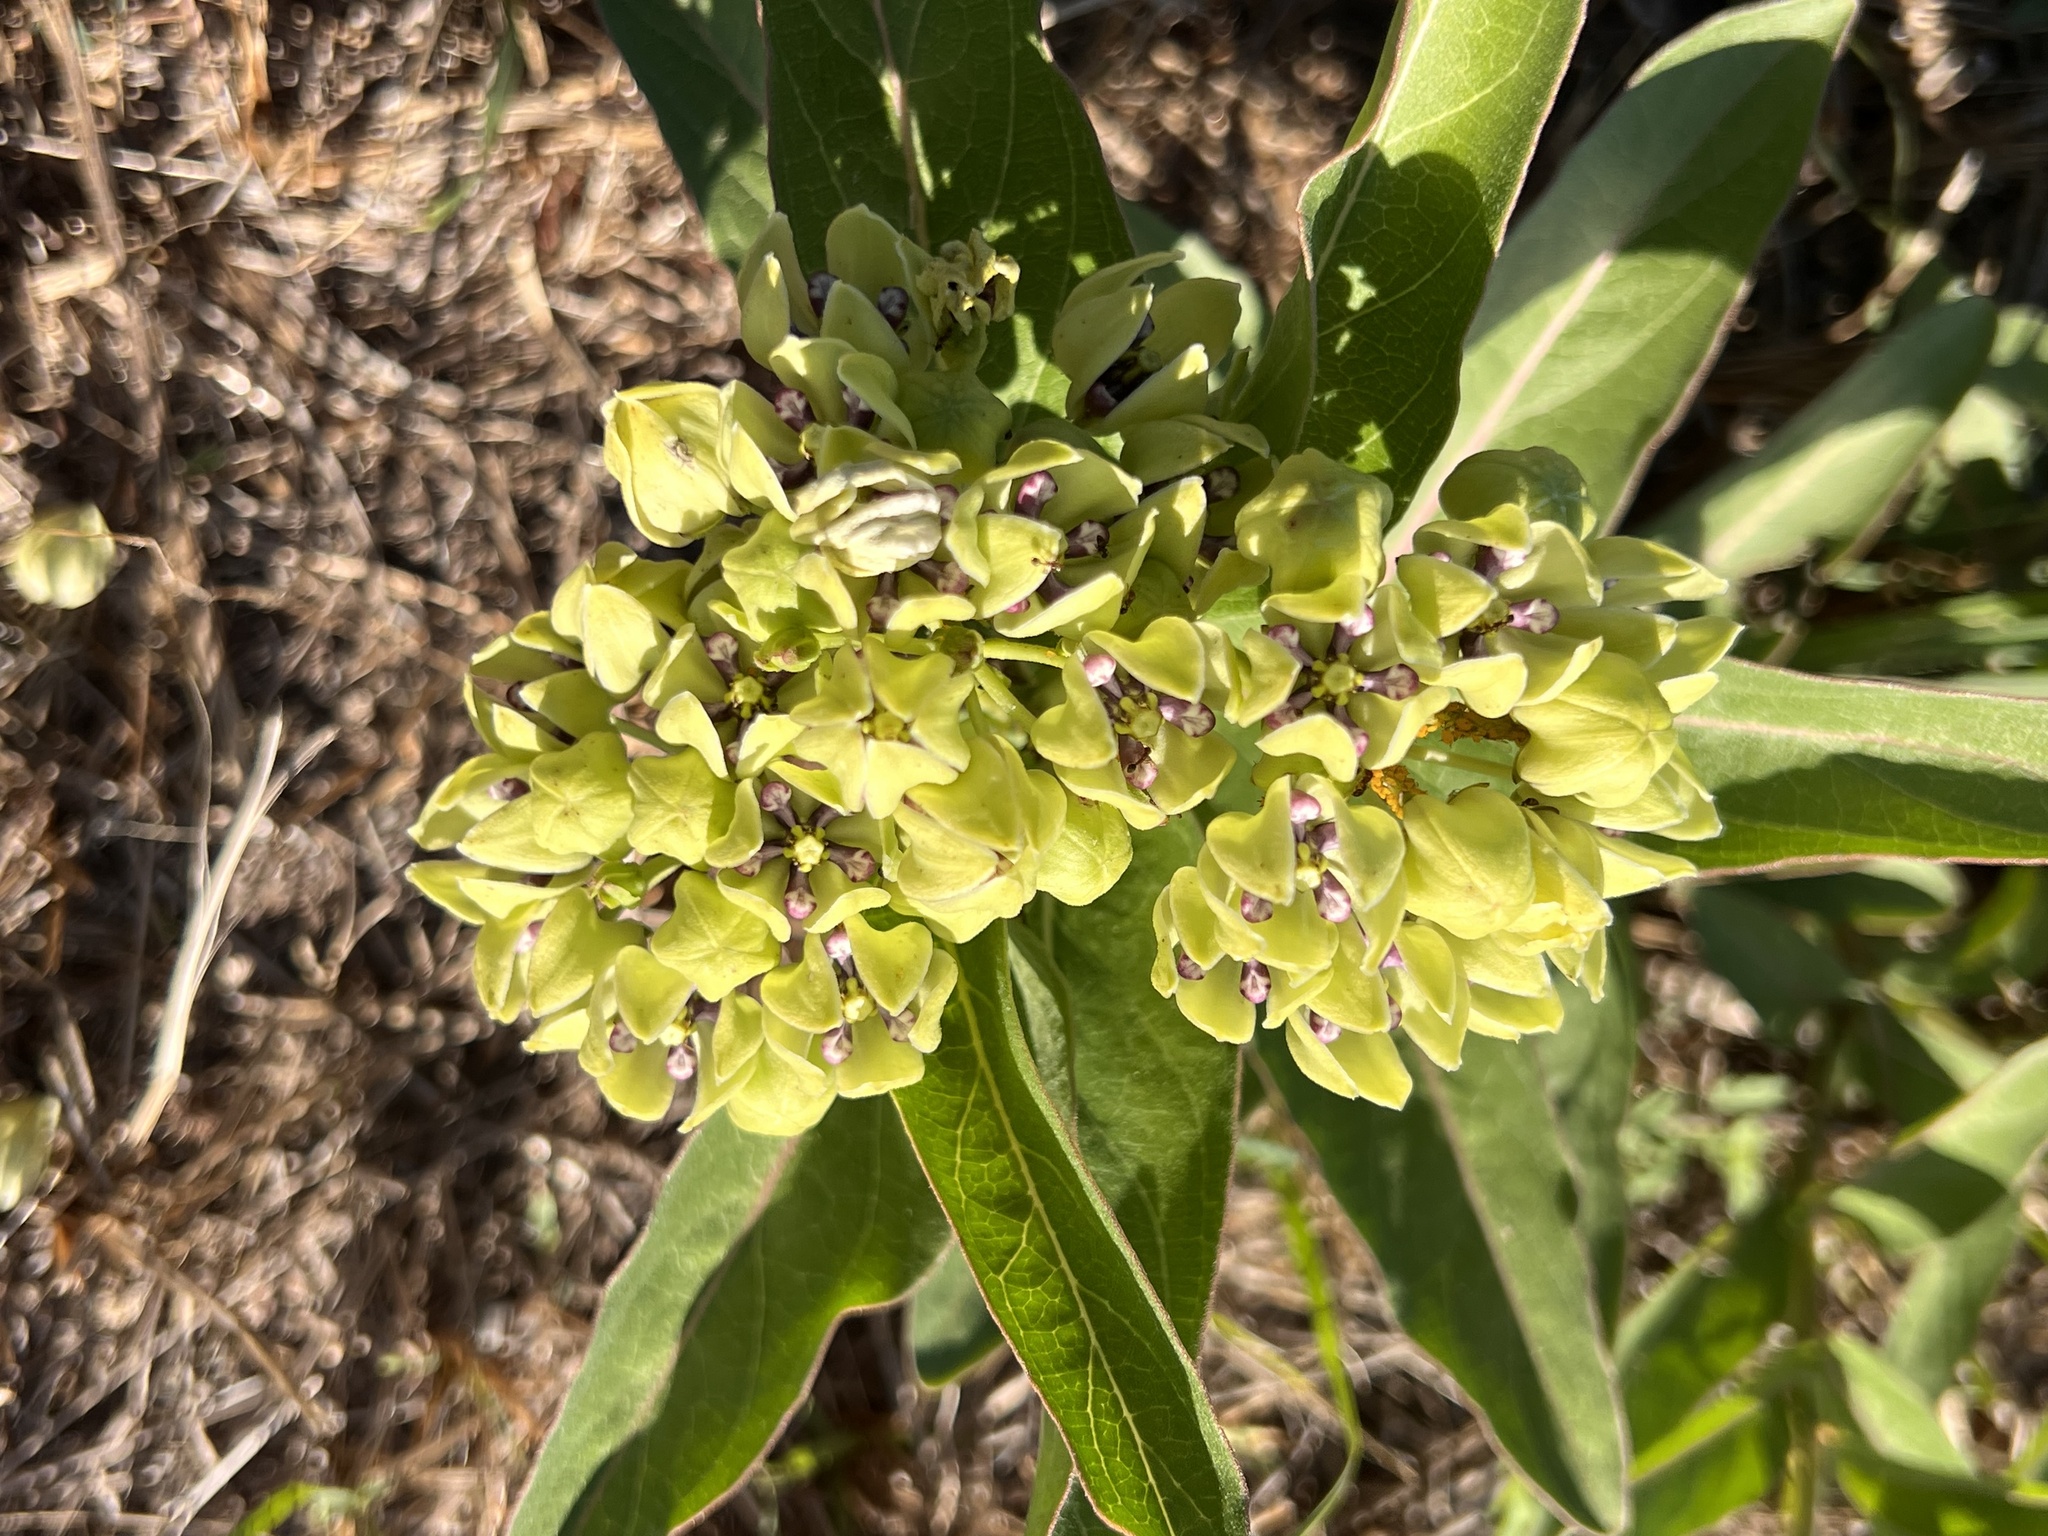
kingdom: Plantae
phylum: Tracheophyta
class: Magnoliopsida
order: Gentianales
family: Apocynaceae
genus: Asclepias
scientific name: Asclepias viridis
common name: Antelope-horns
